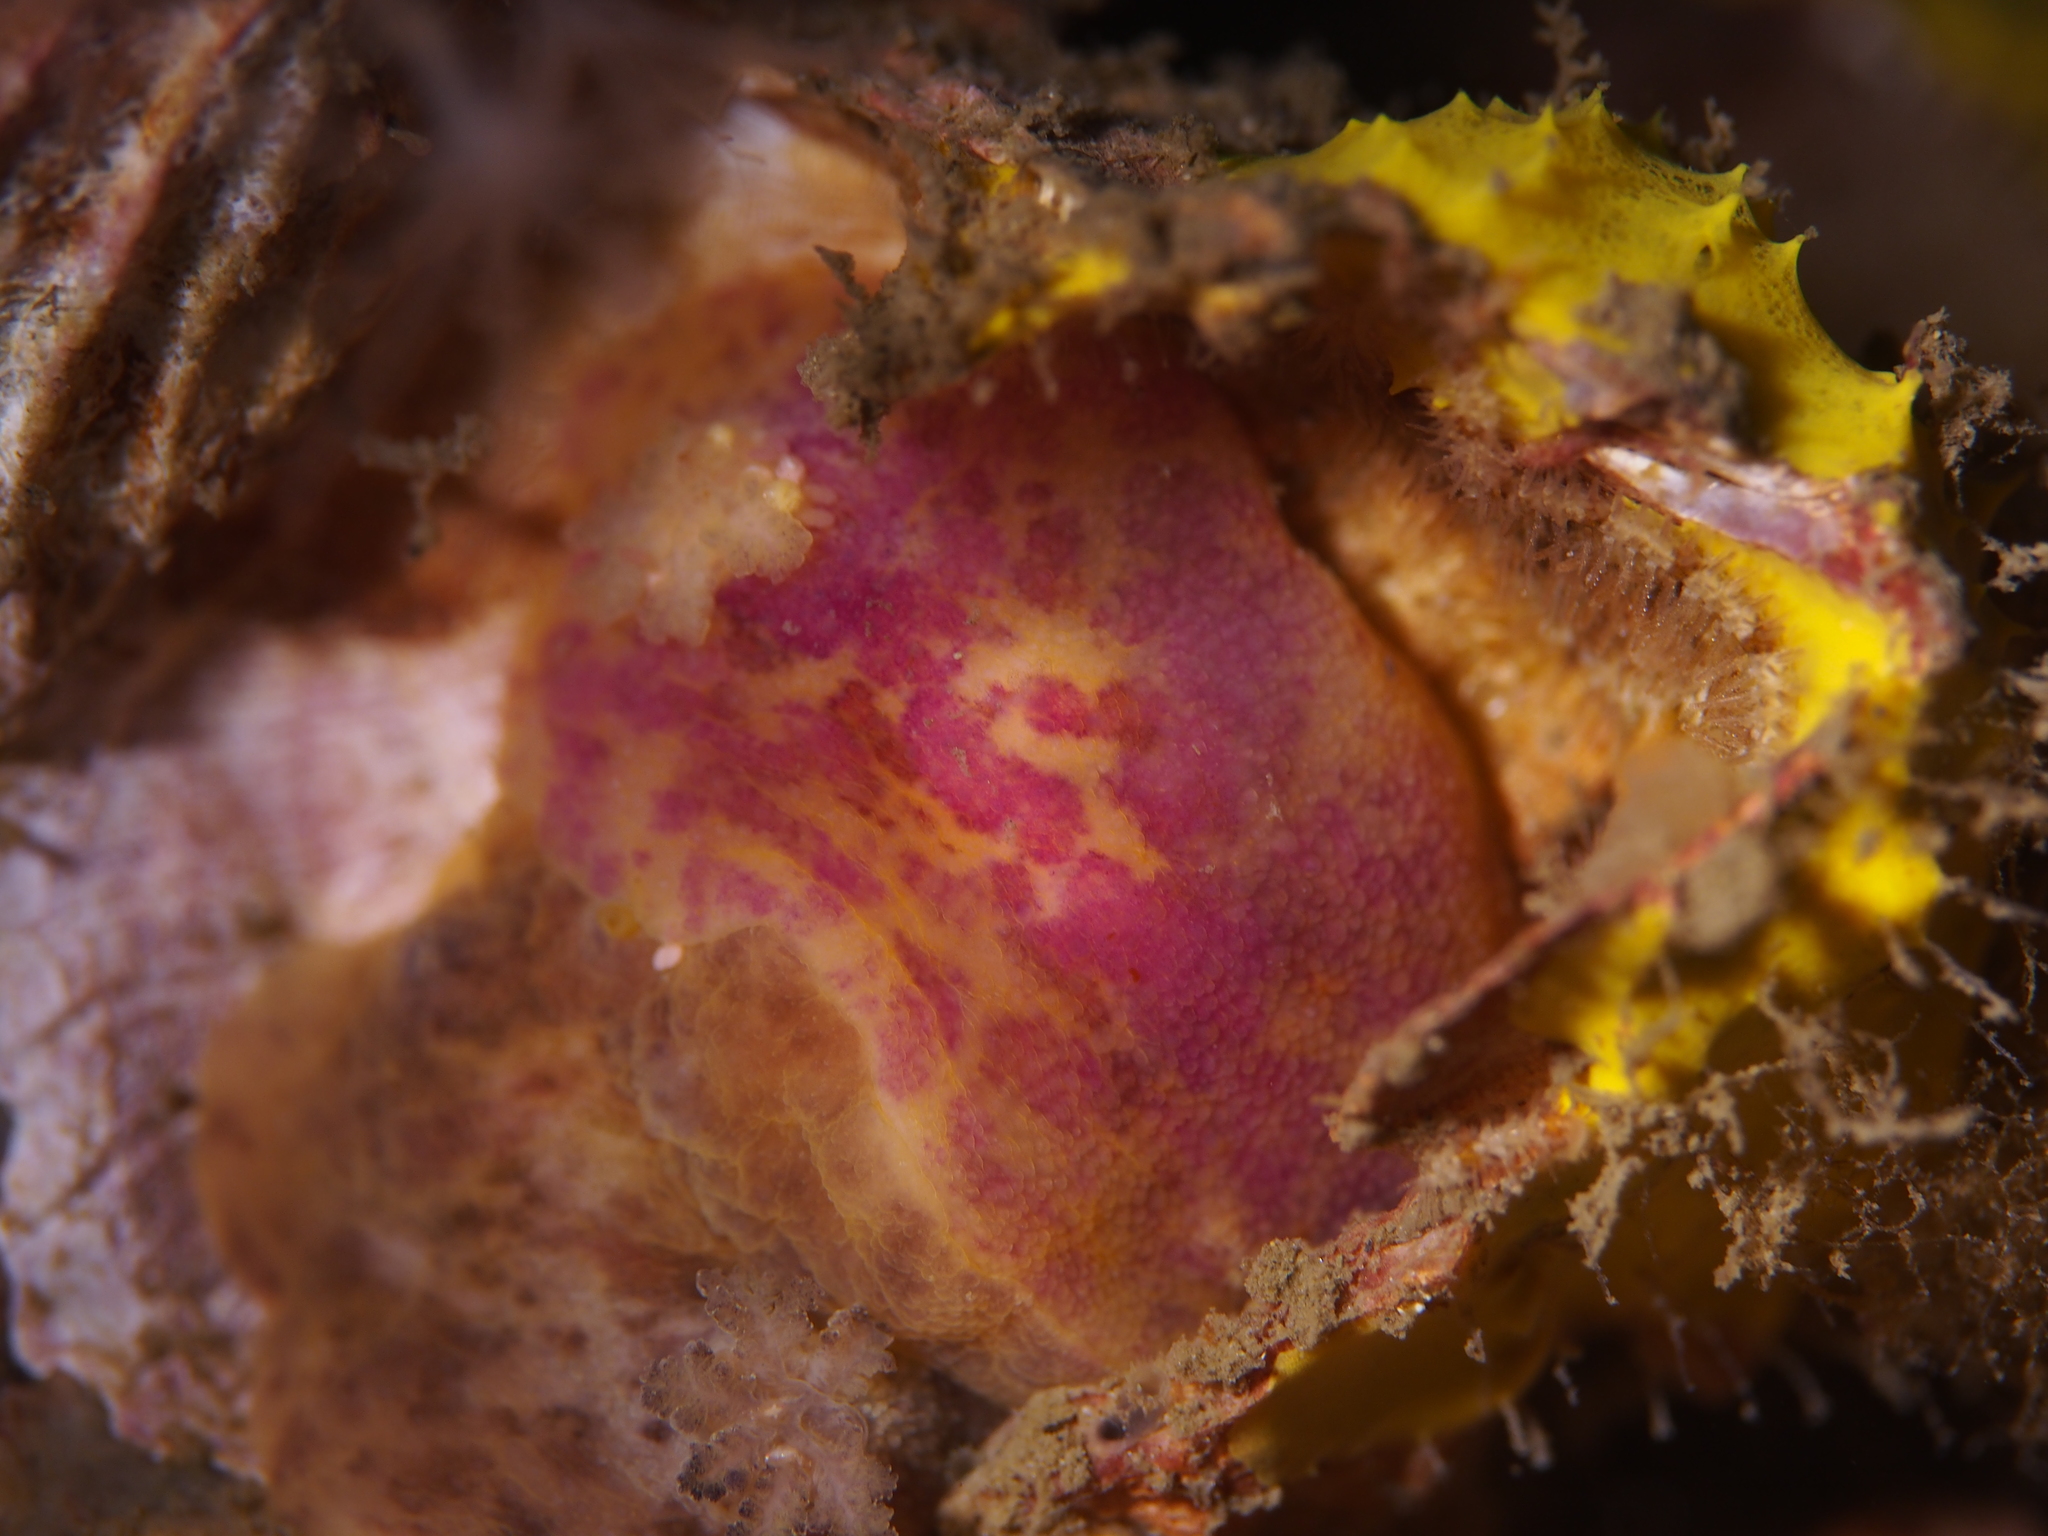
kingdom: Animalia
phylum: Mollusca
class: Gastropoda
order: Nudibranchia
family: Dorididae
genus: Doris
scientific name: Doris pseudoargus
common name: Sea lemon
